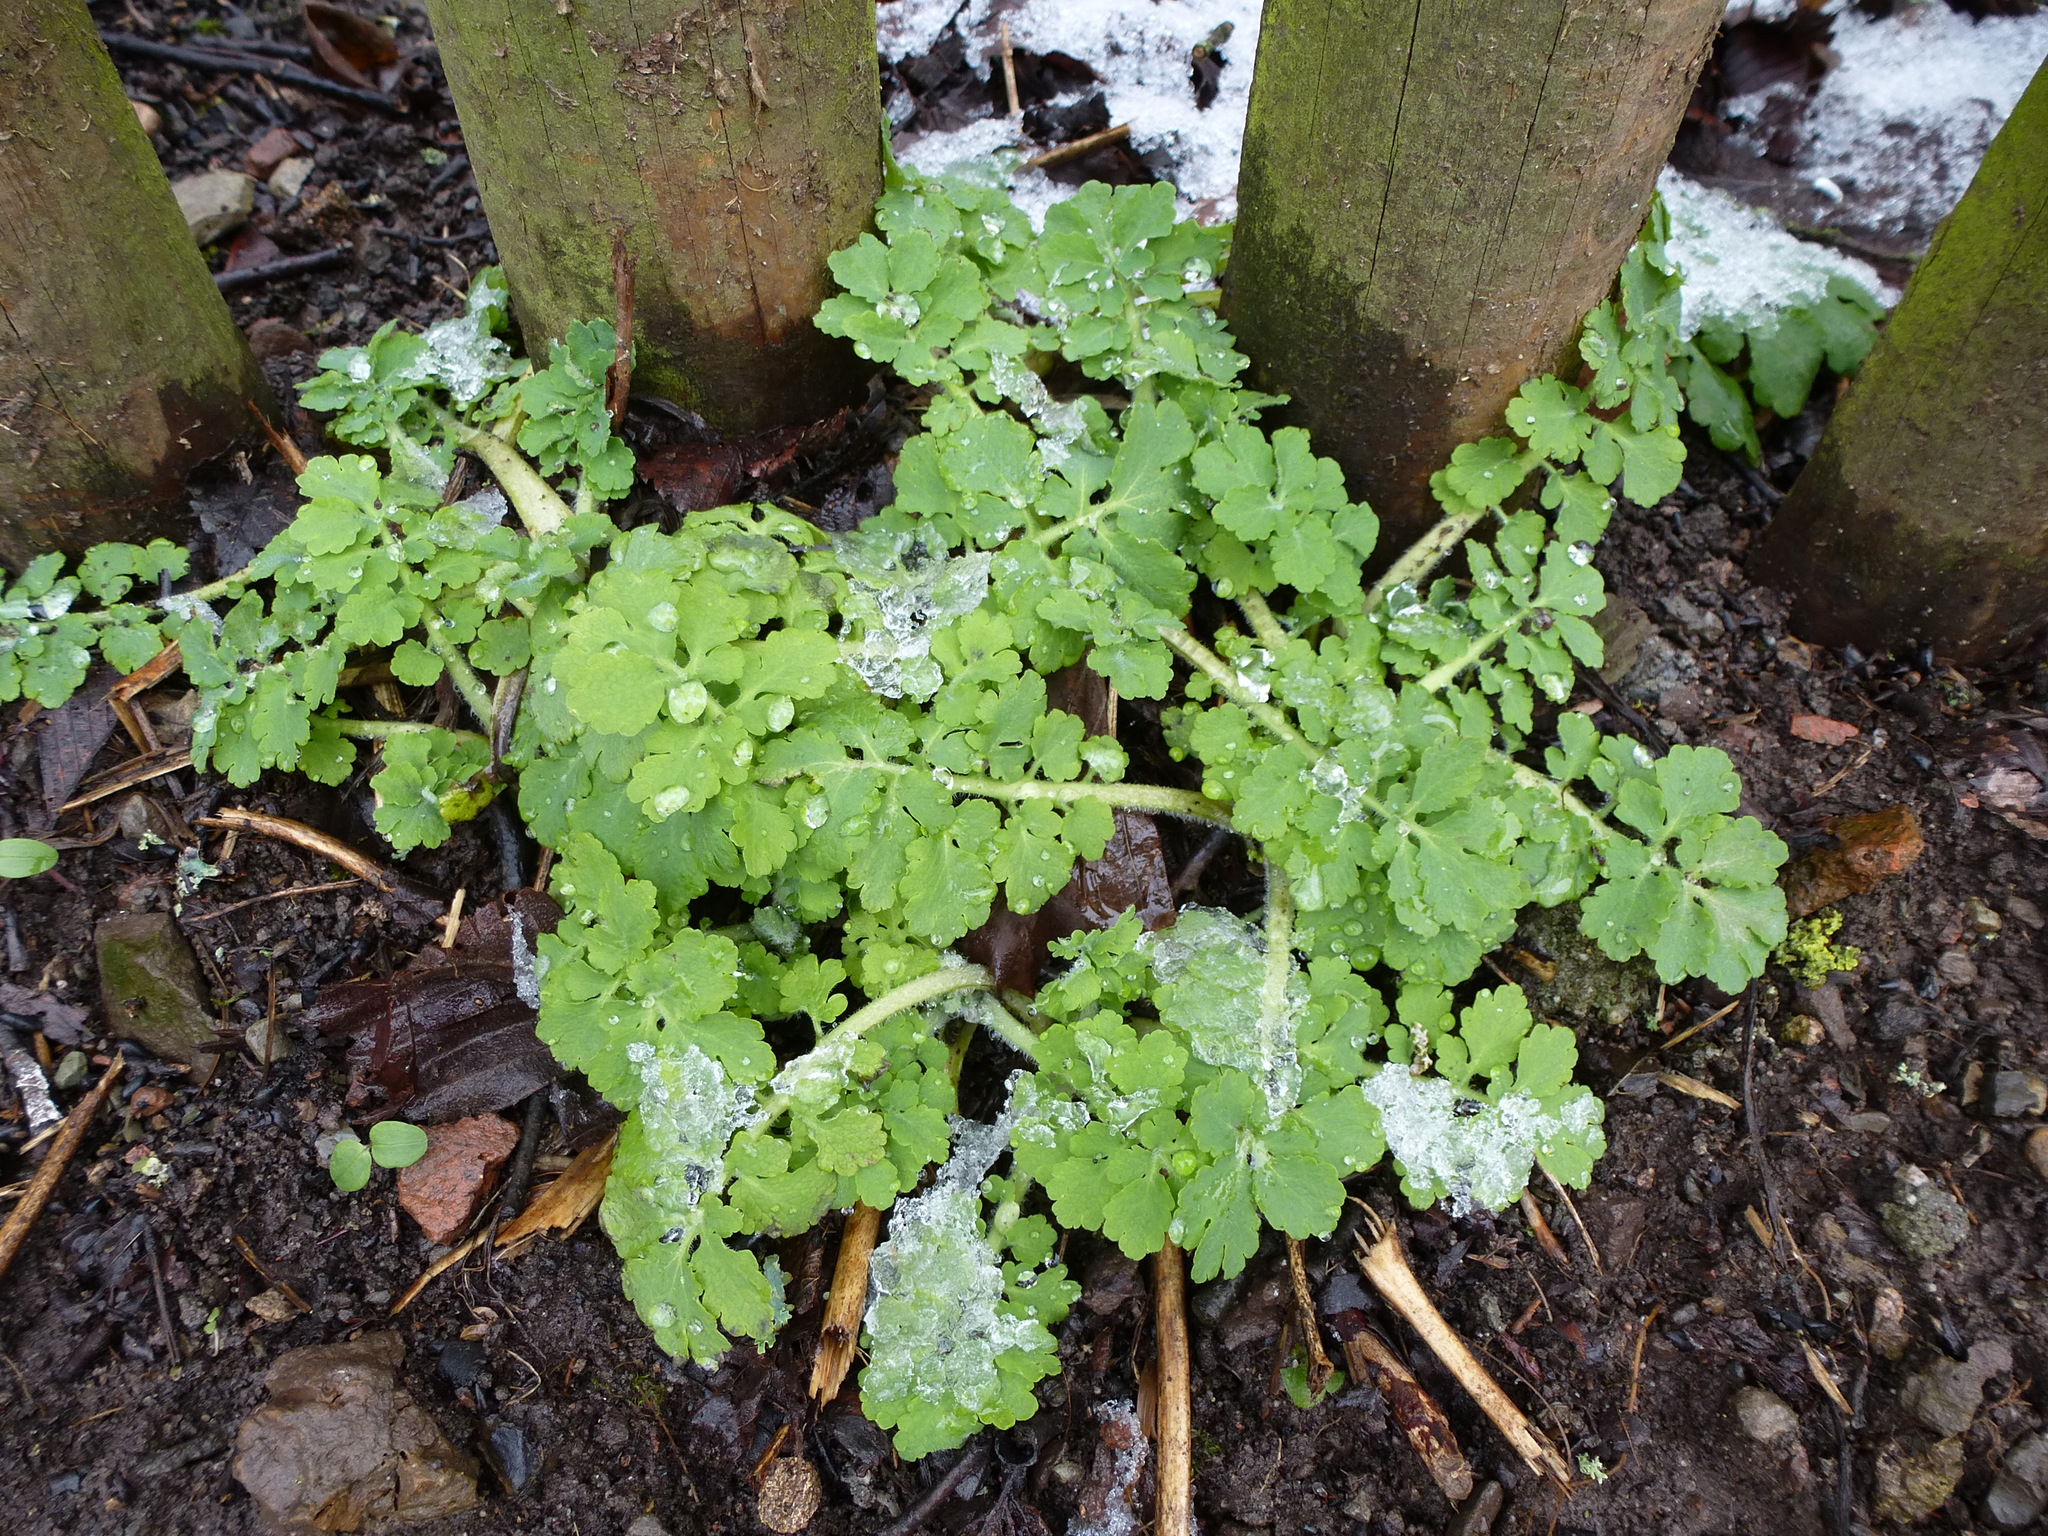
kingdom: Plantae
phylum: Tracheophyta
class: Magnoliopsida
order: Ranunculales
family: Papaveraceae
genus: Chelidonium
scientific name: Chelidonium majus
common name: Greater celandine
